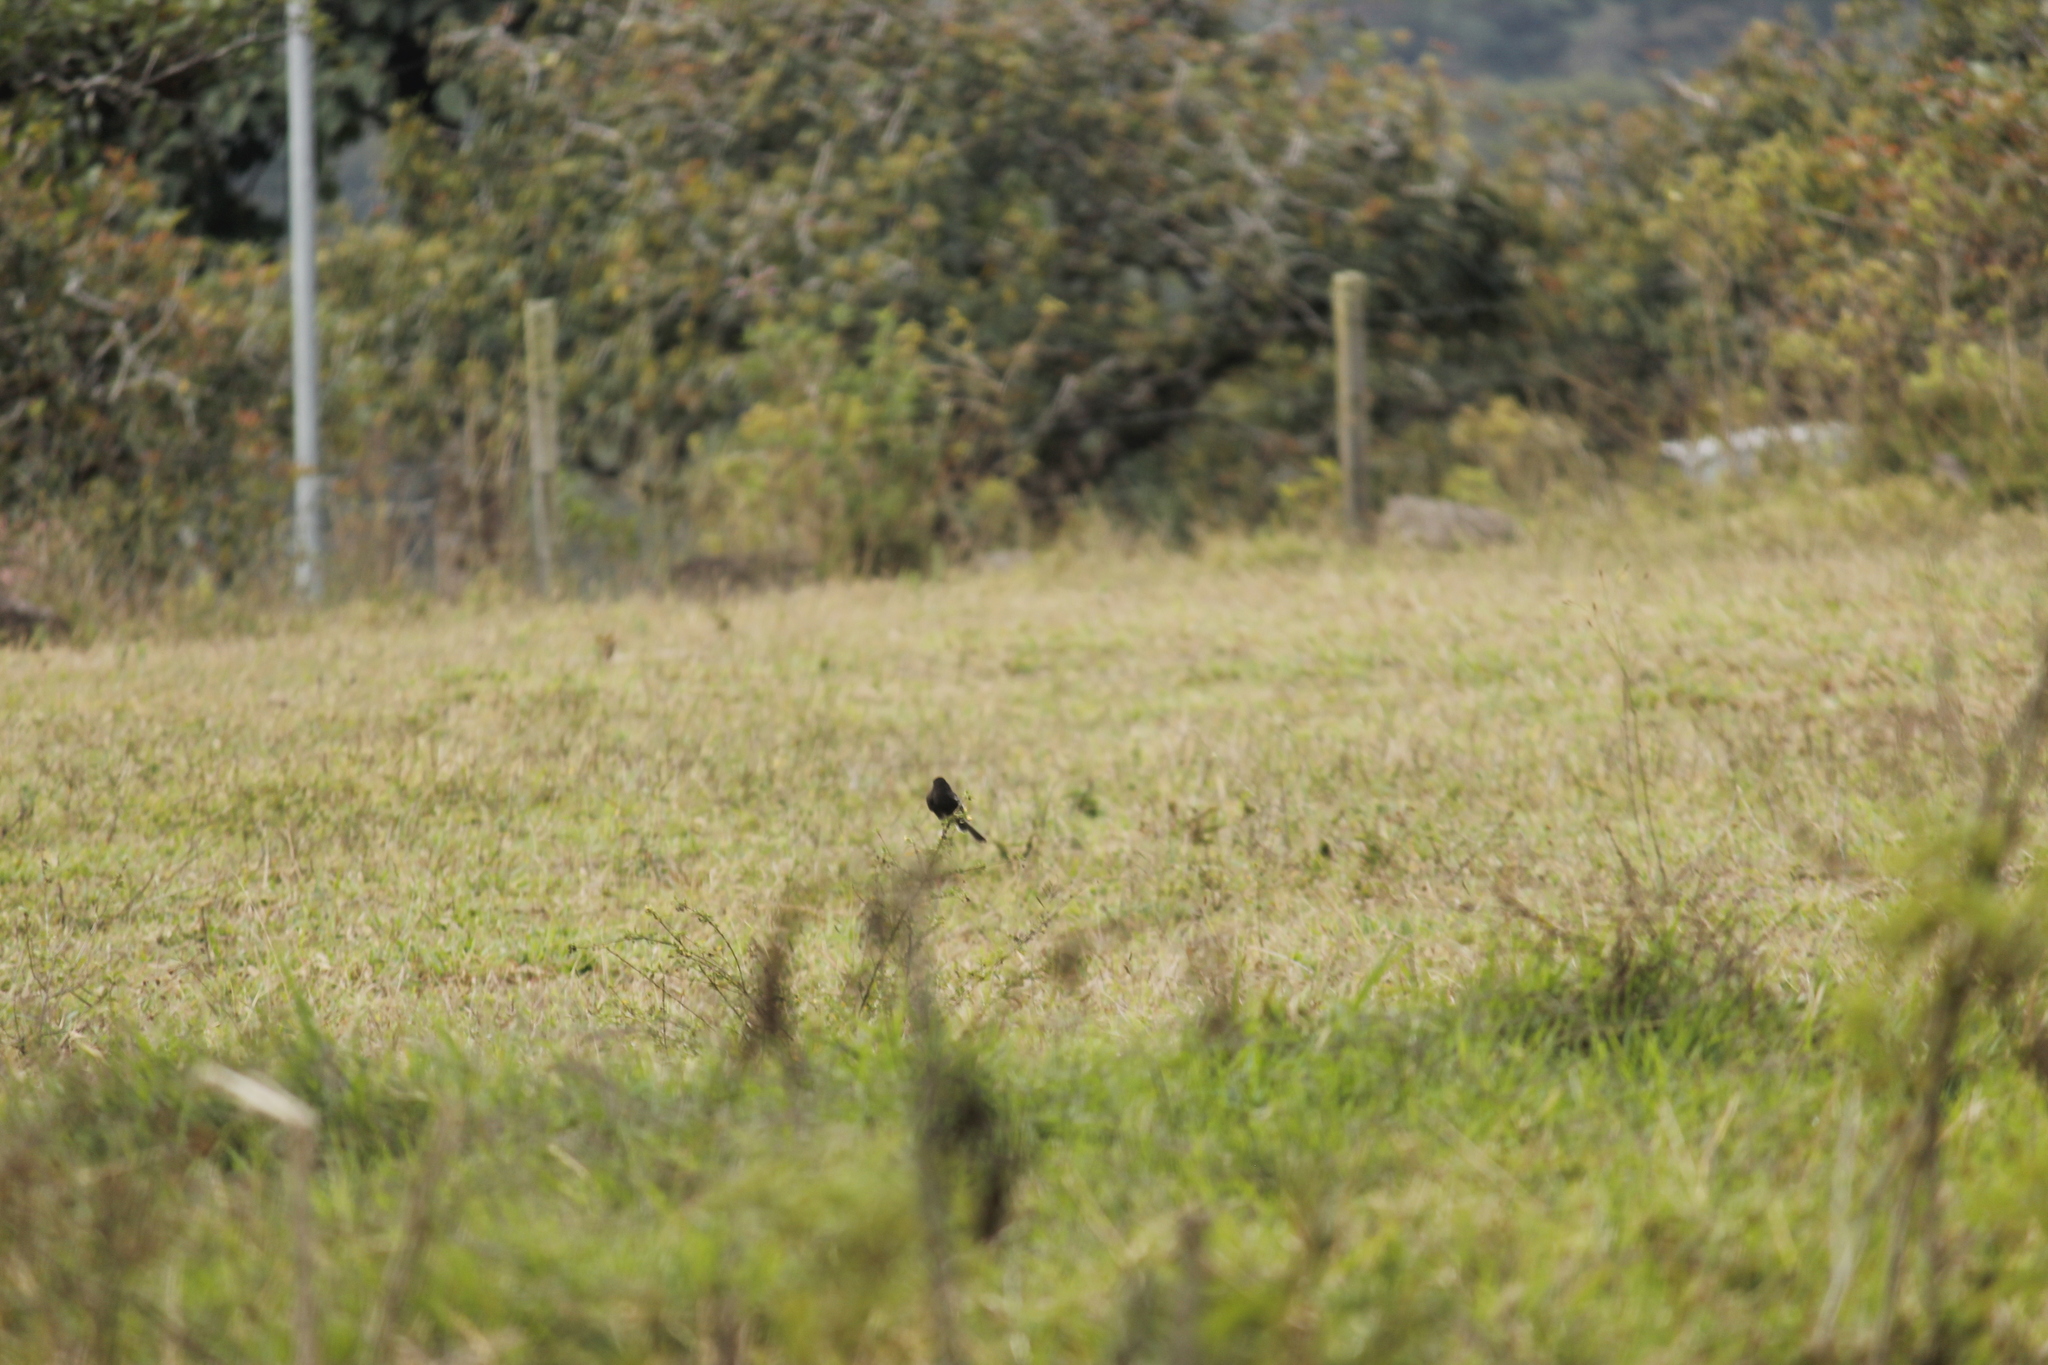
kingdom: Animalia
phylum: Chordata
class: Aves
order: Passeriformes
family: Tyrannidae
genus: Sayornis
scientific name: Sayornis nigricans
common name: Black phoebe
